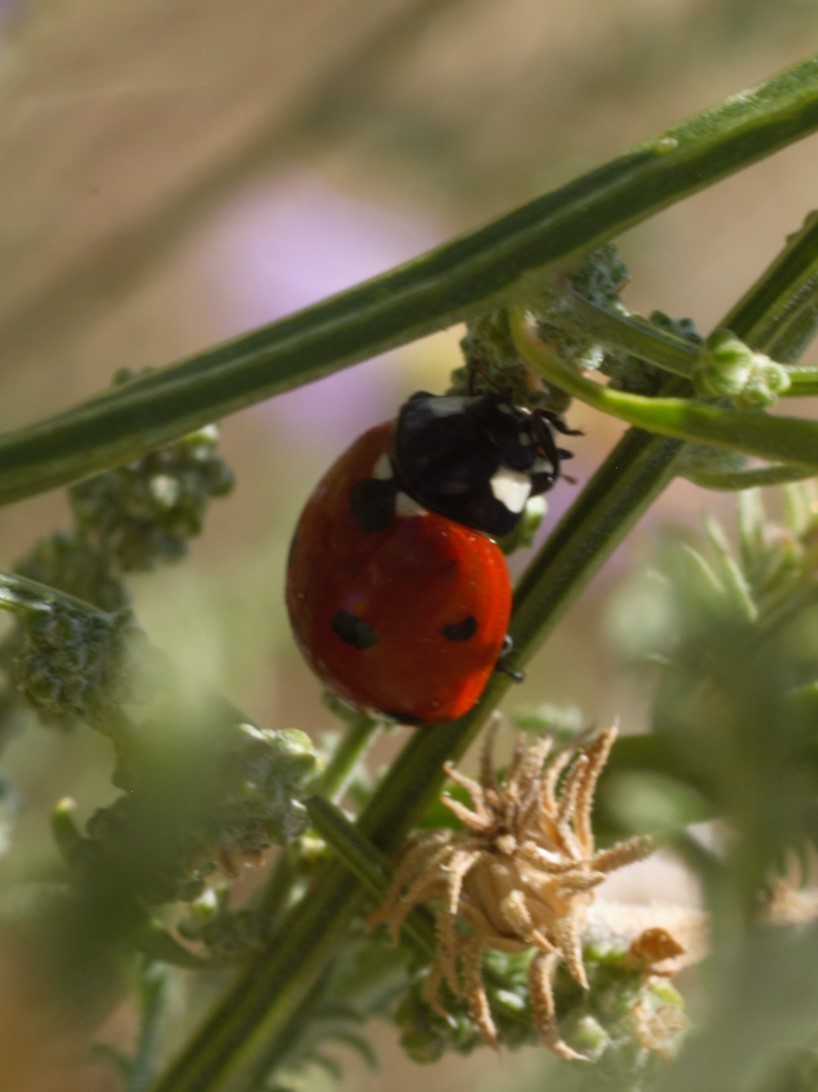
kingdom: Animalia
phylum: Arthropoda
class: Insecta
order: Coleoptera
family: Coccinellidae
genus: Coccinella
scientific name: Coccinella septempunctata
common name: Sevenspotted lady beetle
